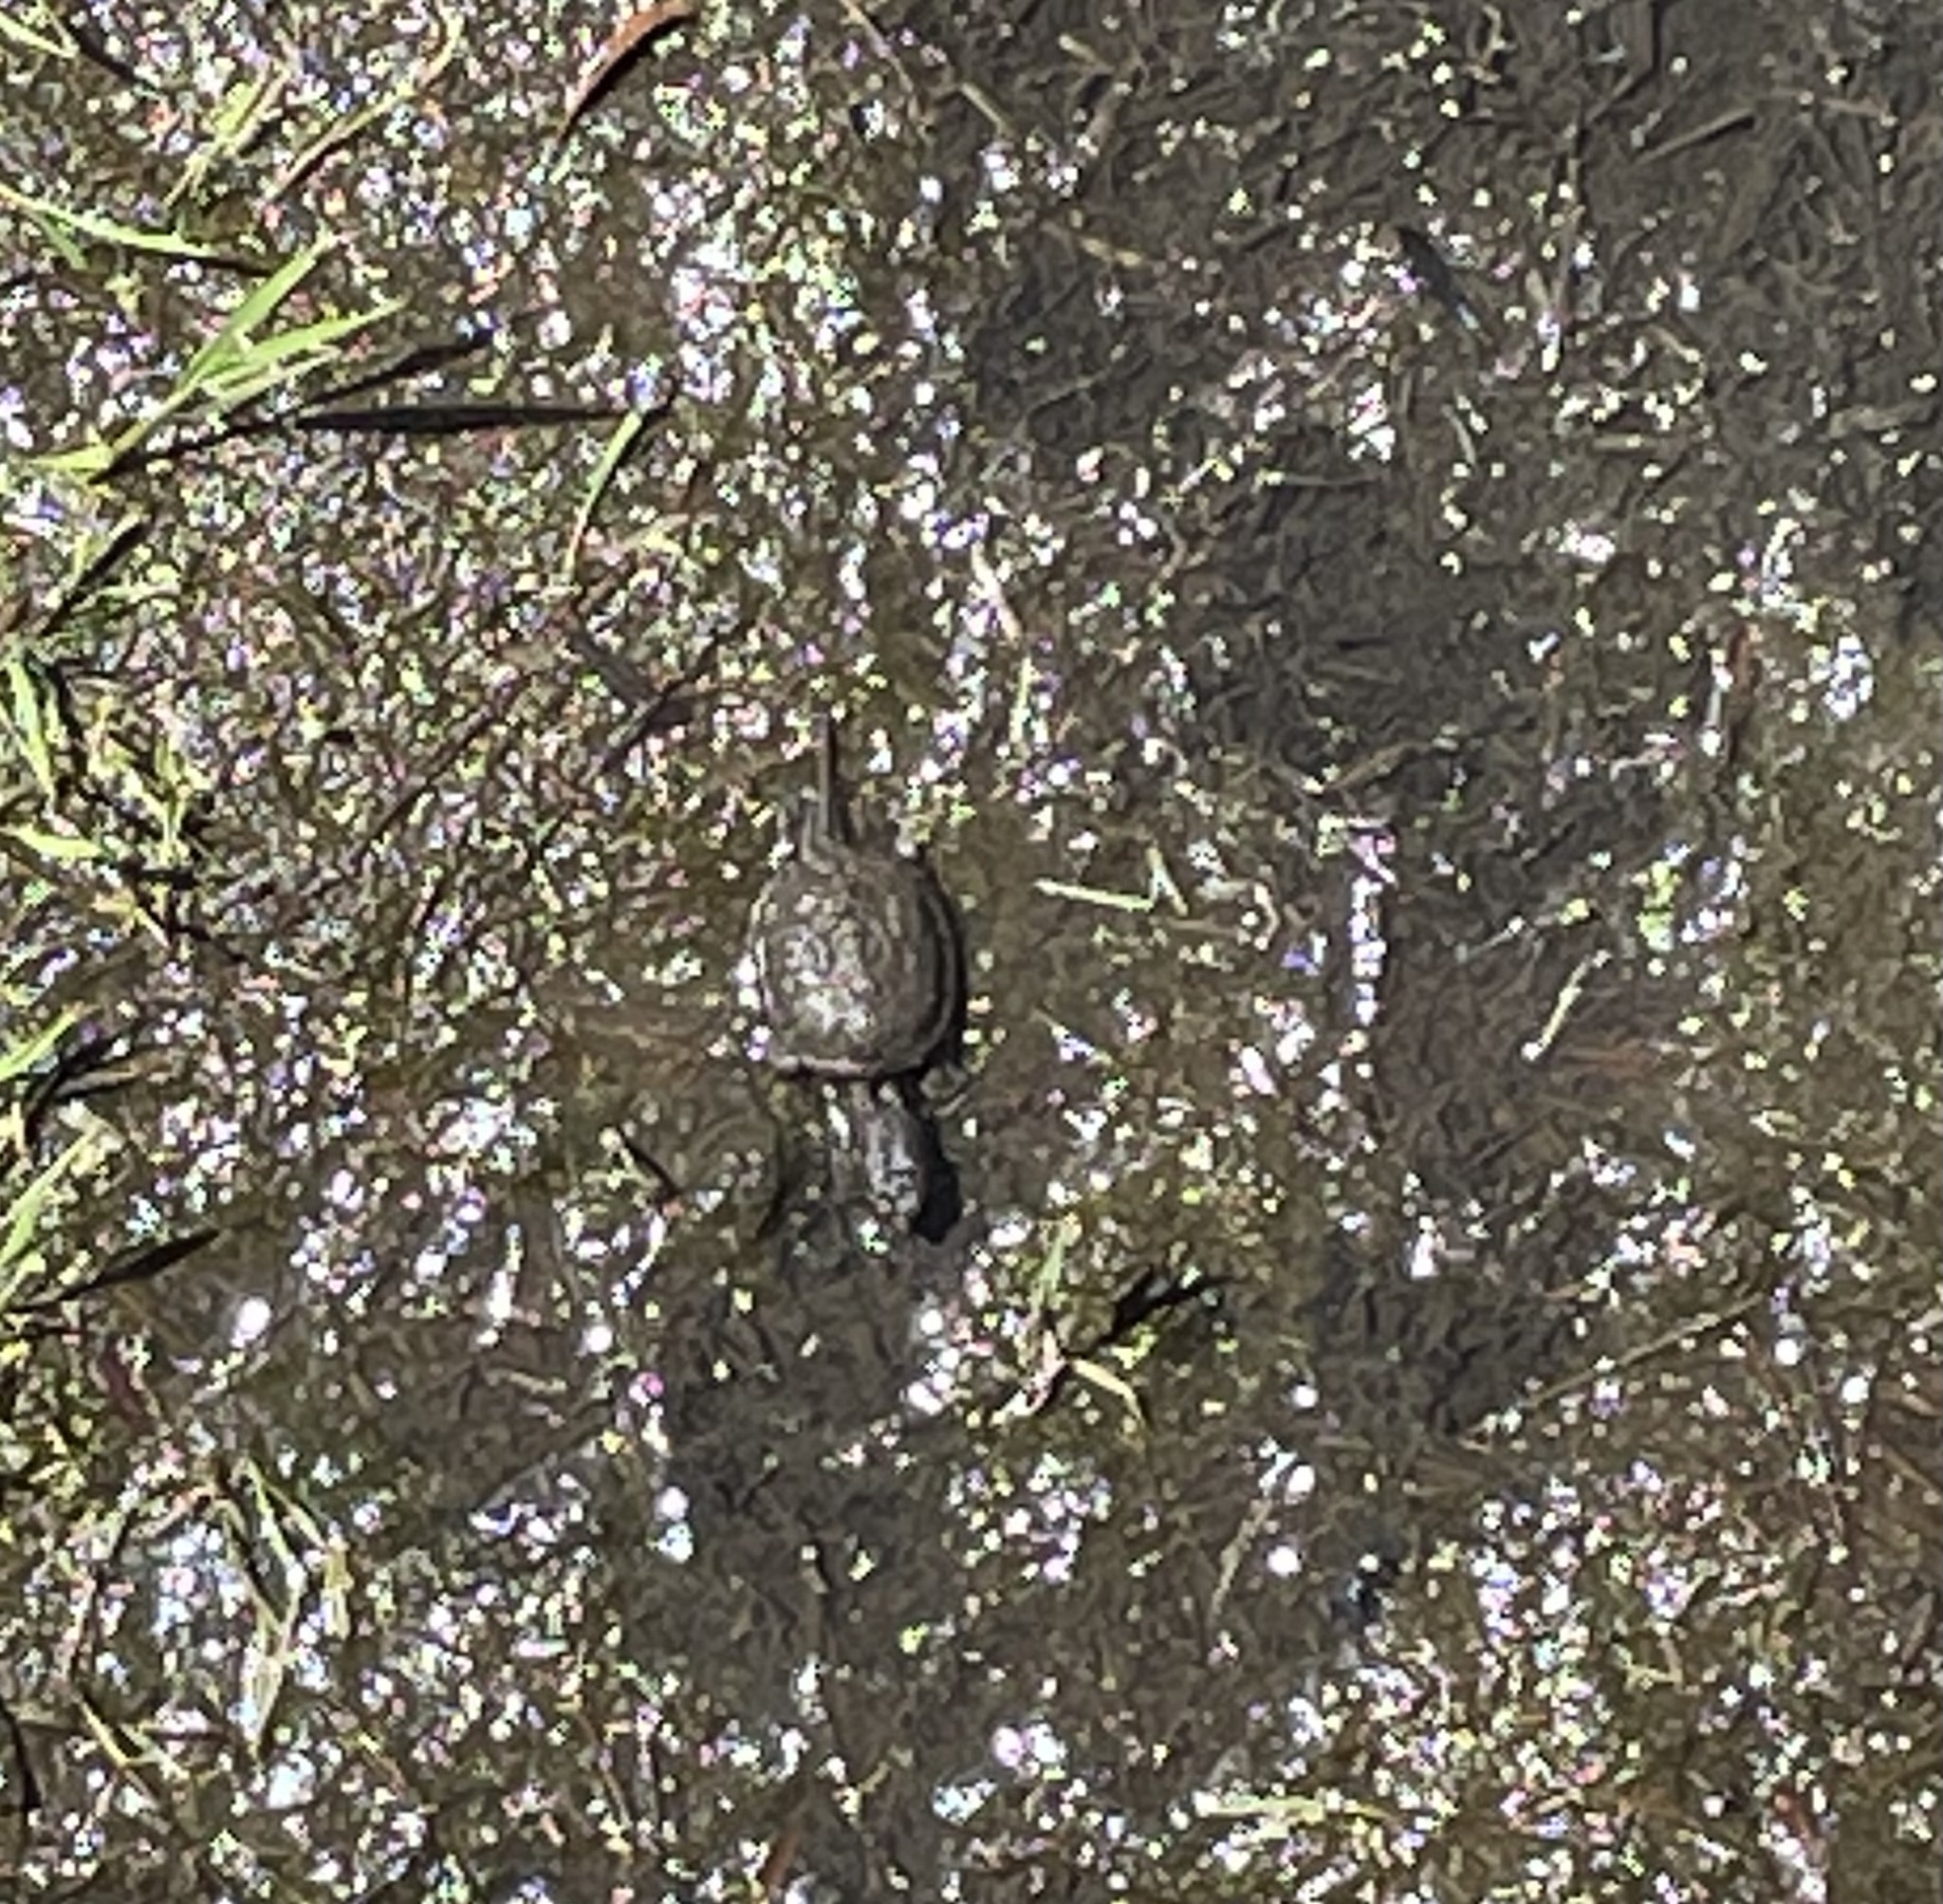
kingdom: Animalia
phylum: Chordata
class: Testudines
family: Chelydridae
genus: Chelydra
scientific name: Chelydra serpentina
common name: Common snapping turtle
